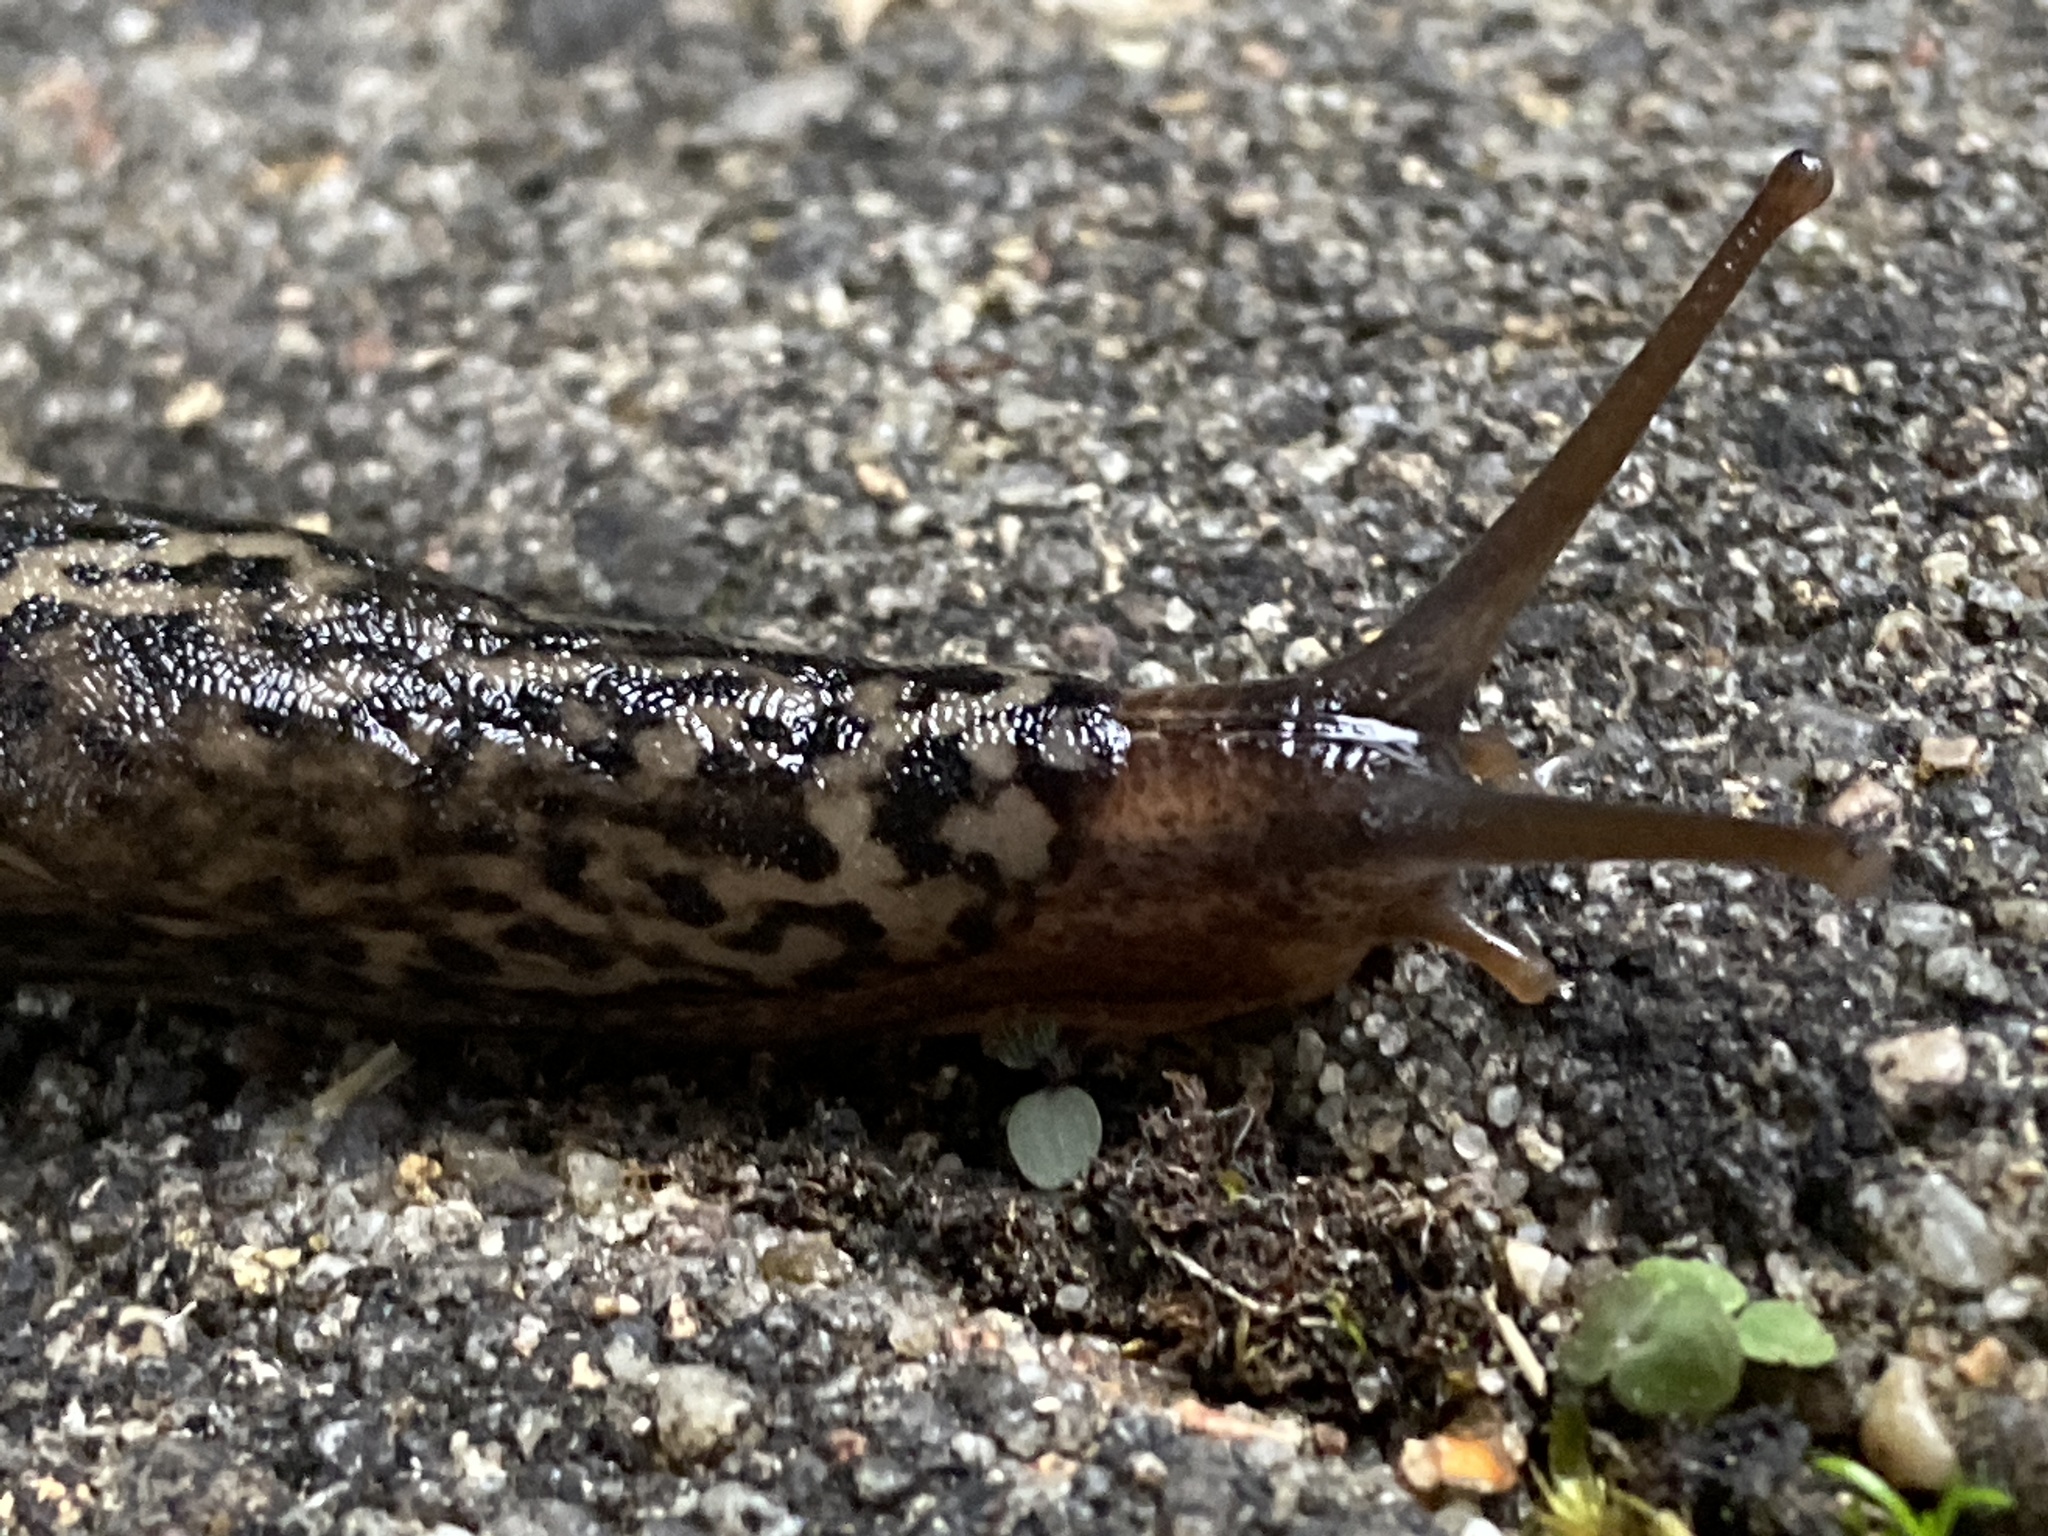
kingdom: Animalia
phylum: Mollusca
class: Gastropoda
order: Stylommatophora
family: Limacidae
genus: Limax
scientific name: Limax maximus
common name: Great grey slug
